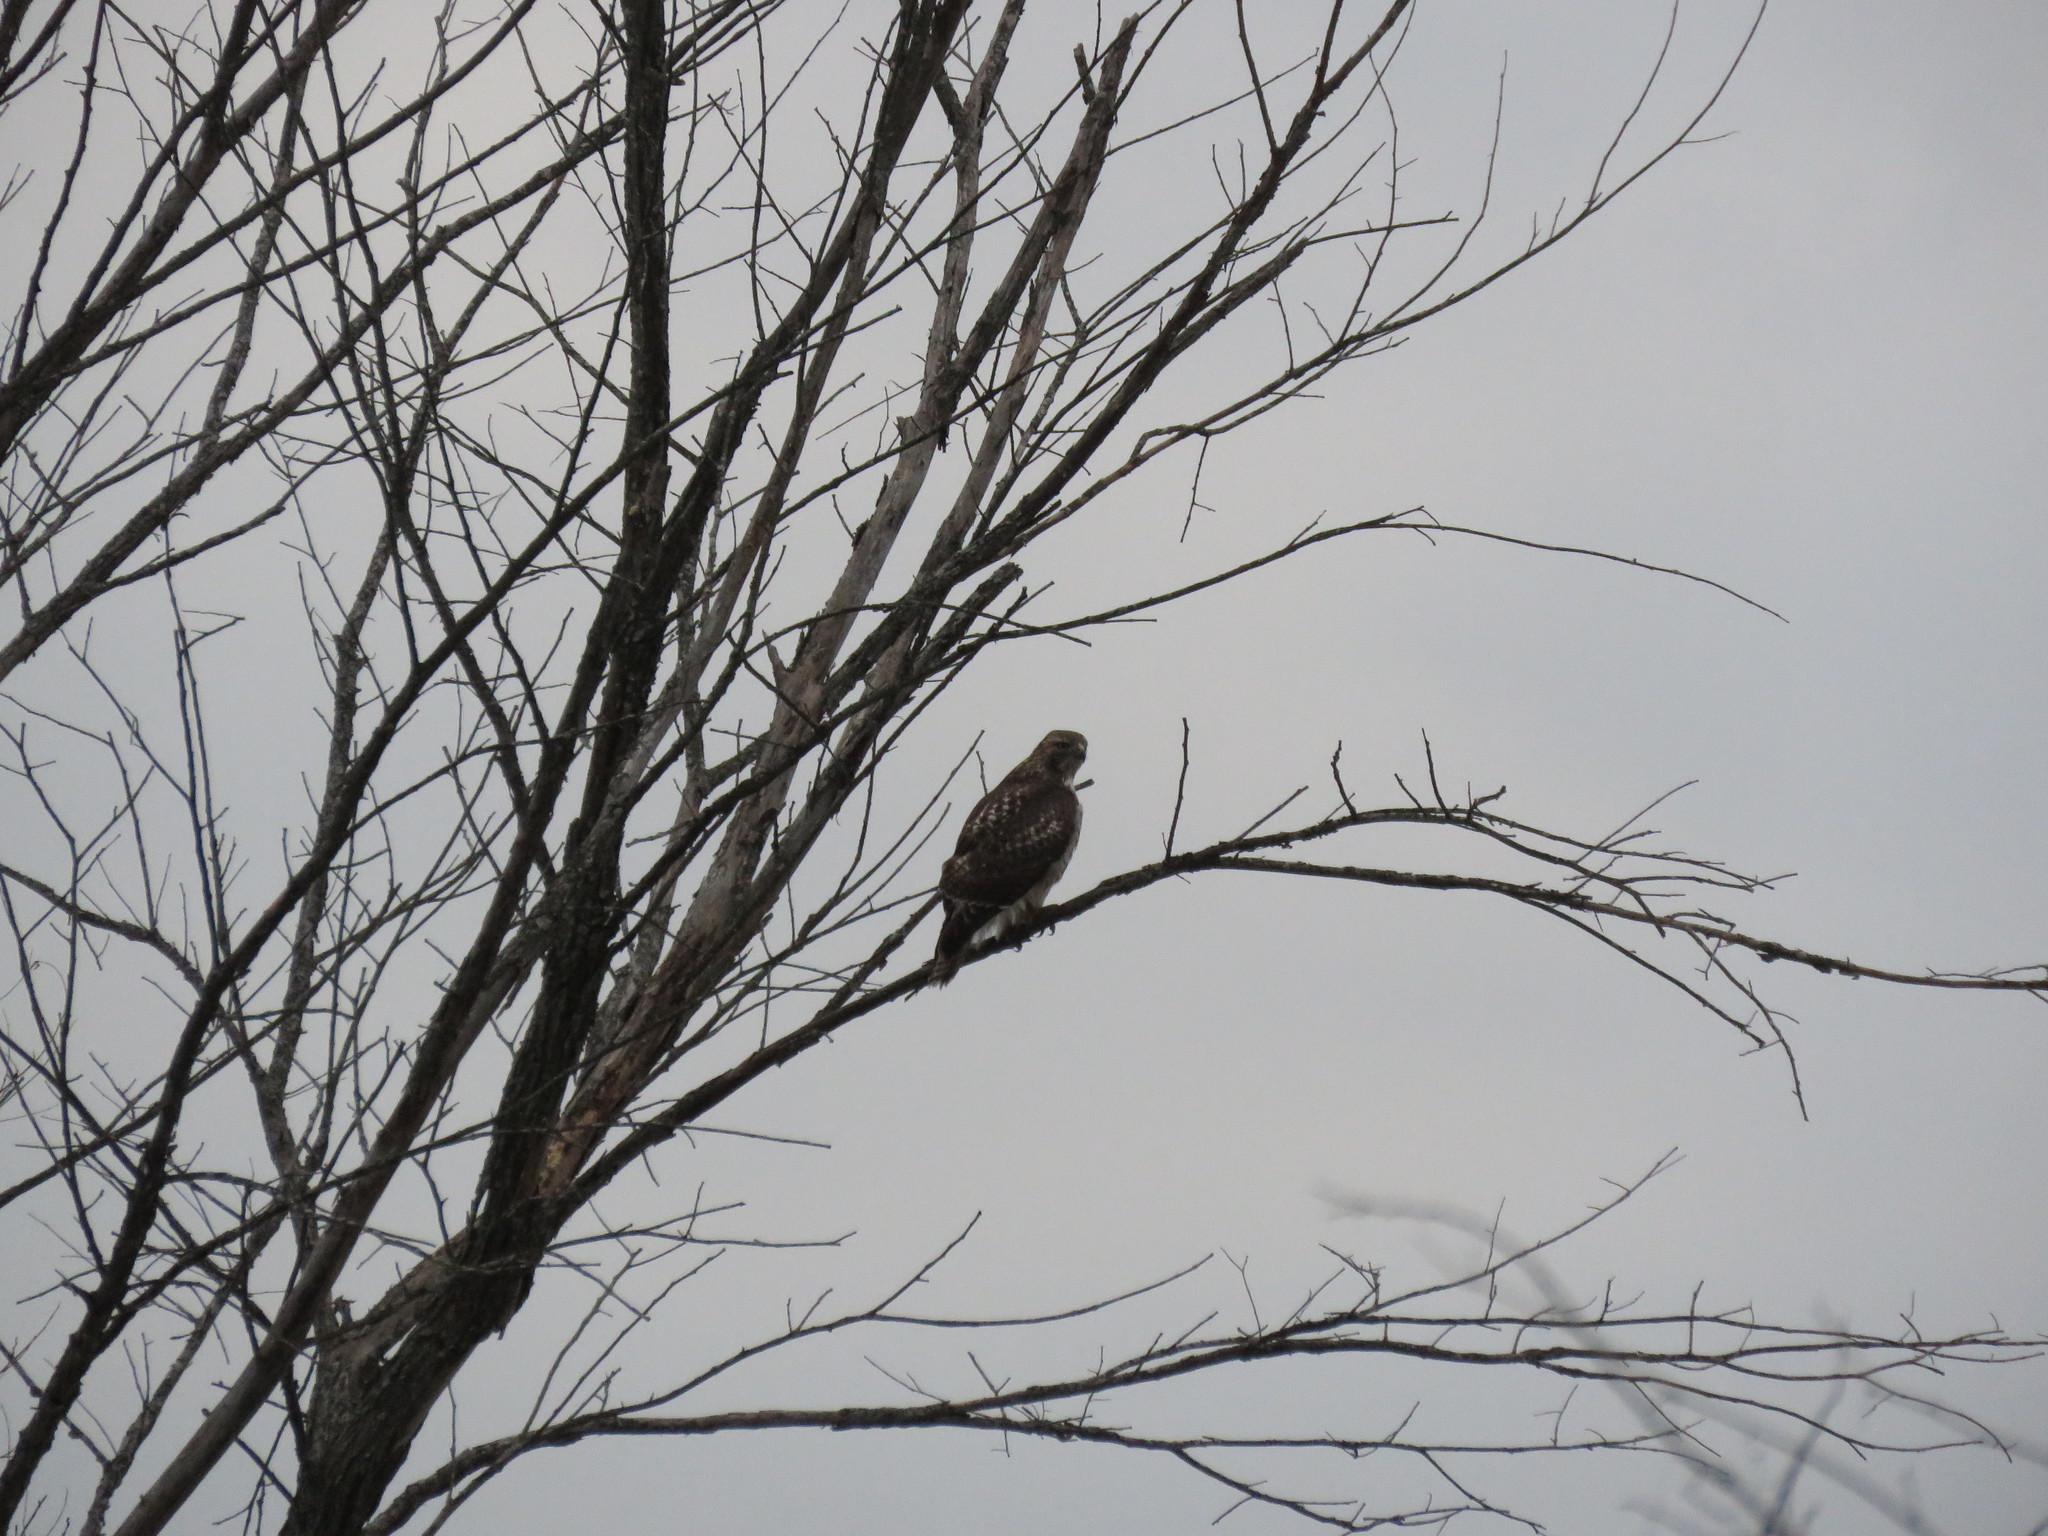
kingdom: Animalia
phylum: Chordata
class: Aves
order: Accipitriformes
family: Accipitridae
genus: Buteo
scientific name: Buteo jamaicensis
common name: Red-tailed hawk
